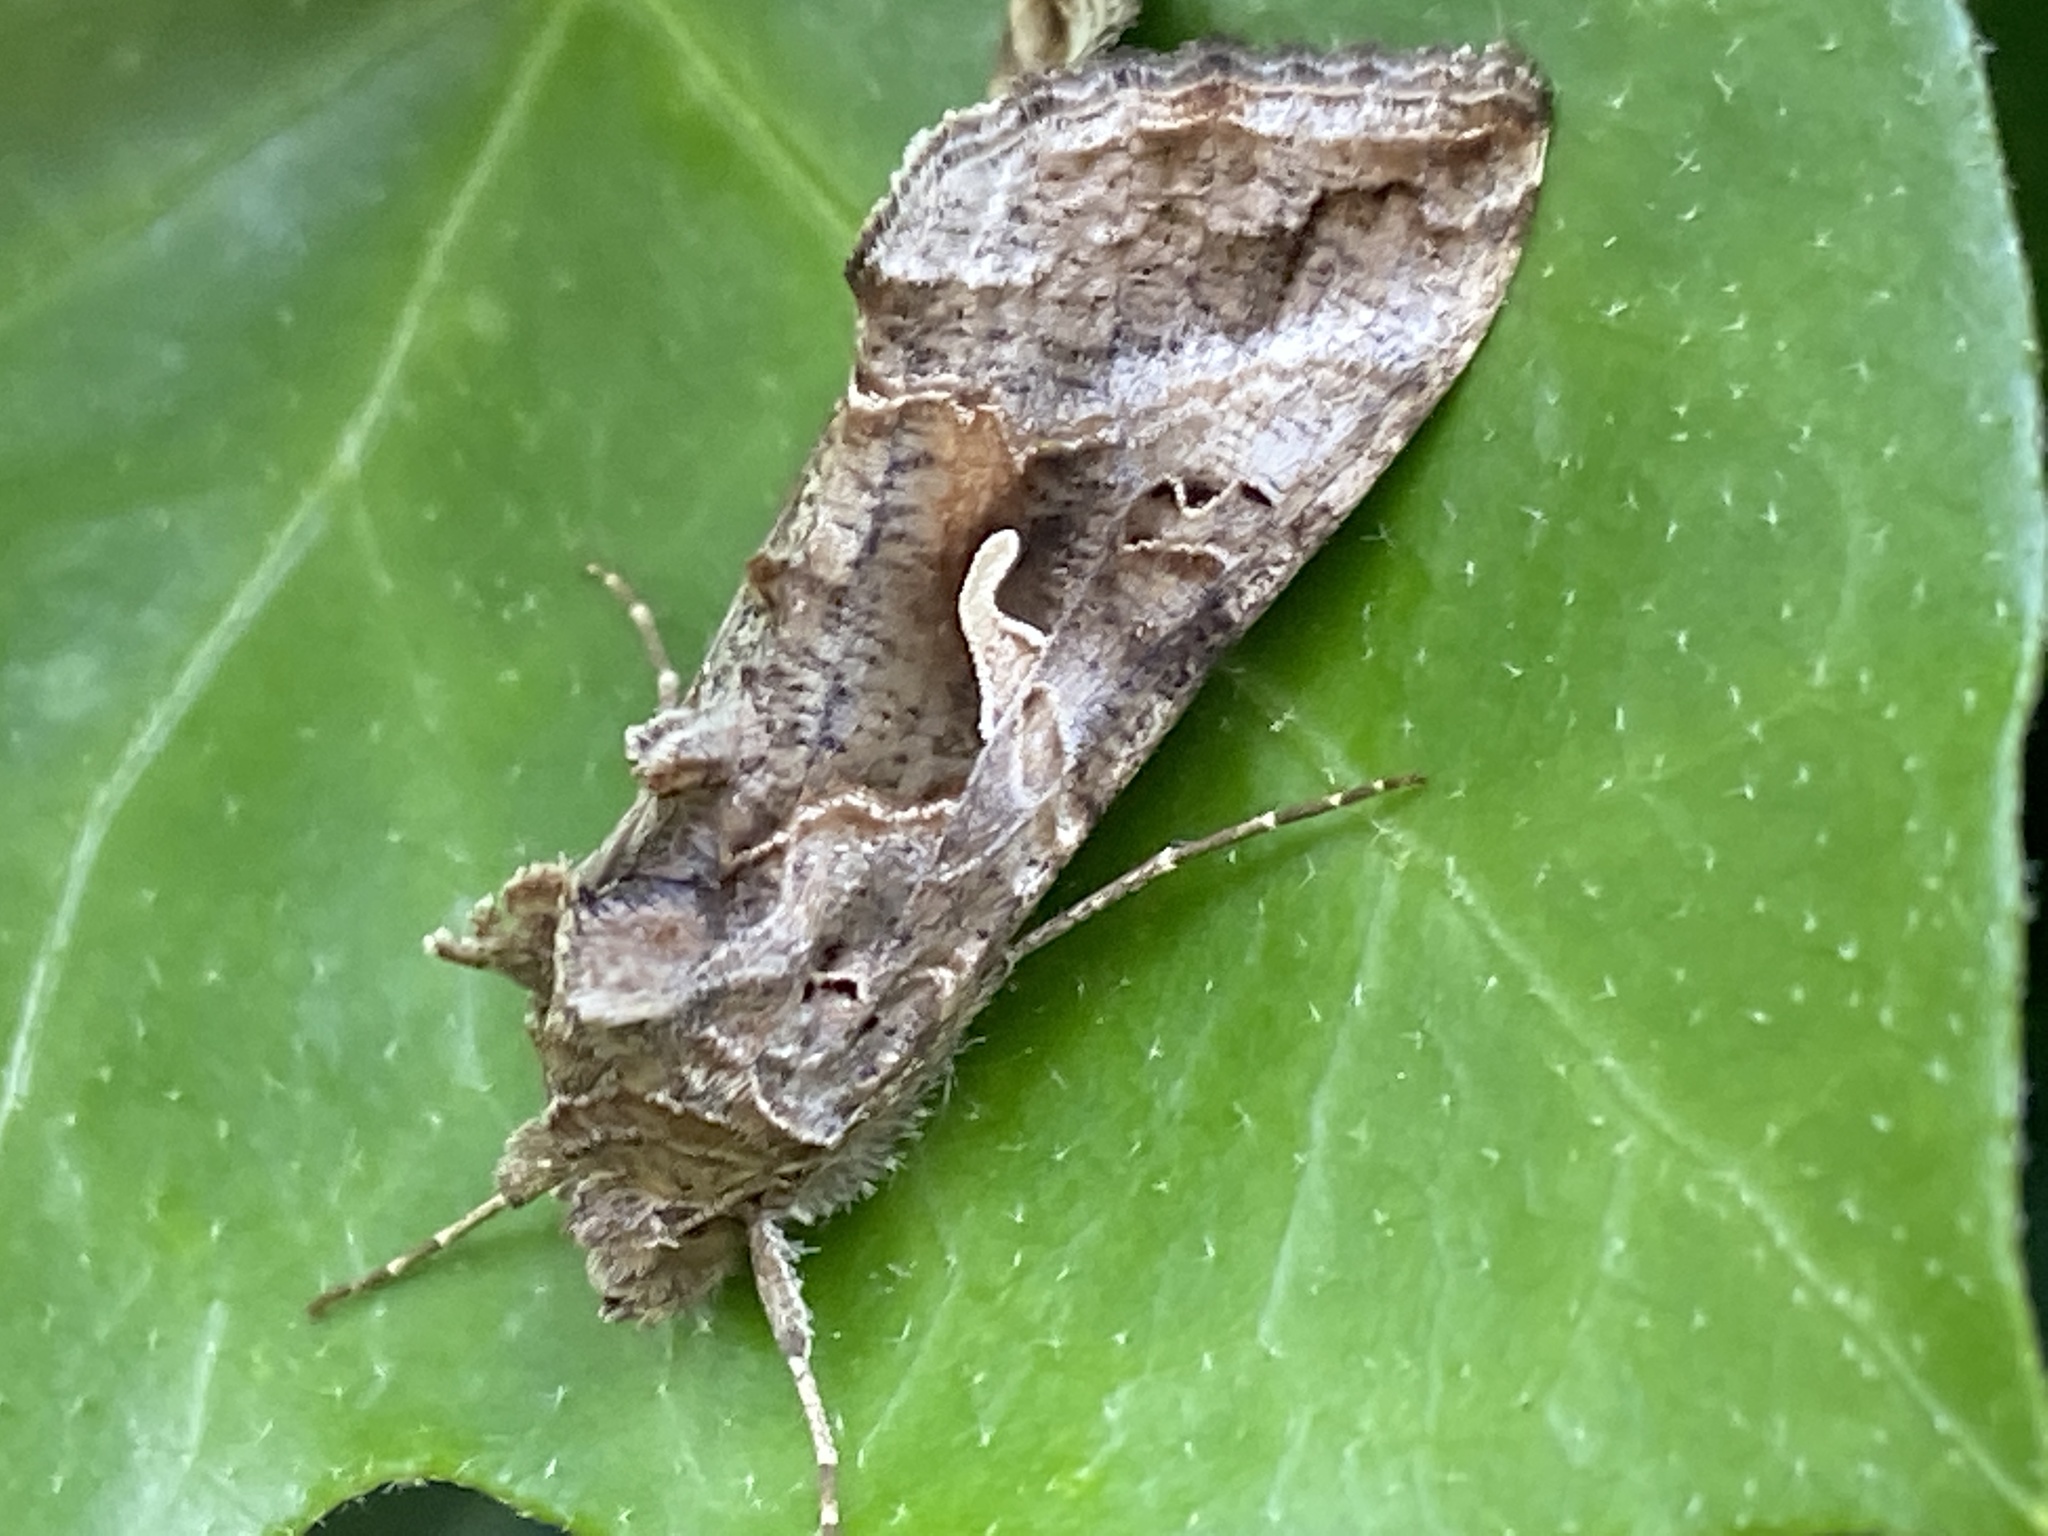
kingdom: Animalia
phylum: Arthropoda
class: Insecta
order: Lepidoptera
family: Noctuidae
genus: Autographa
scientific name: Autographa gamma
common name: Silver y
